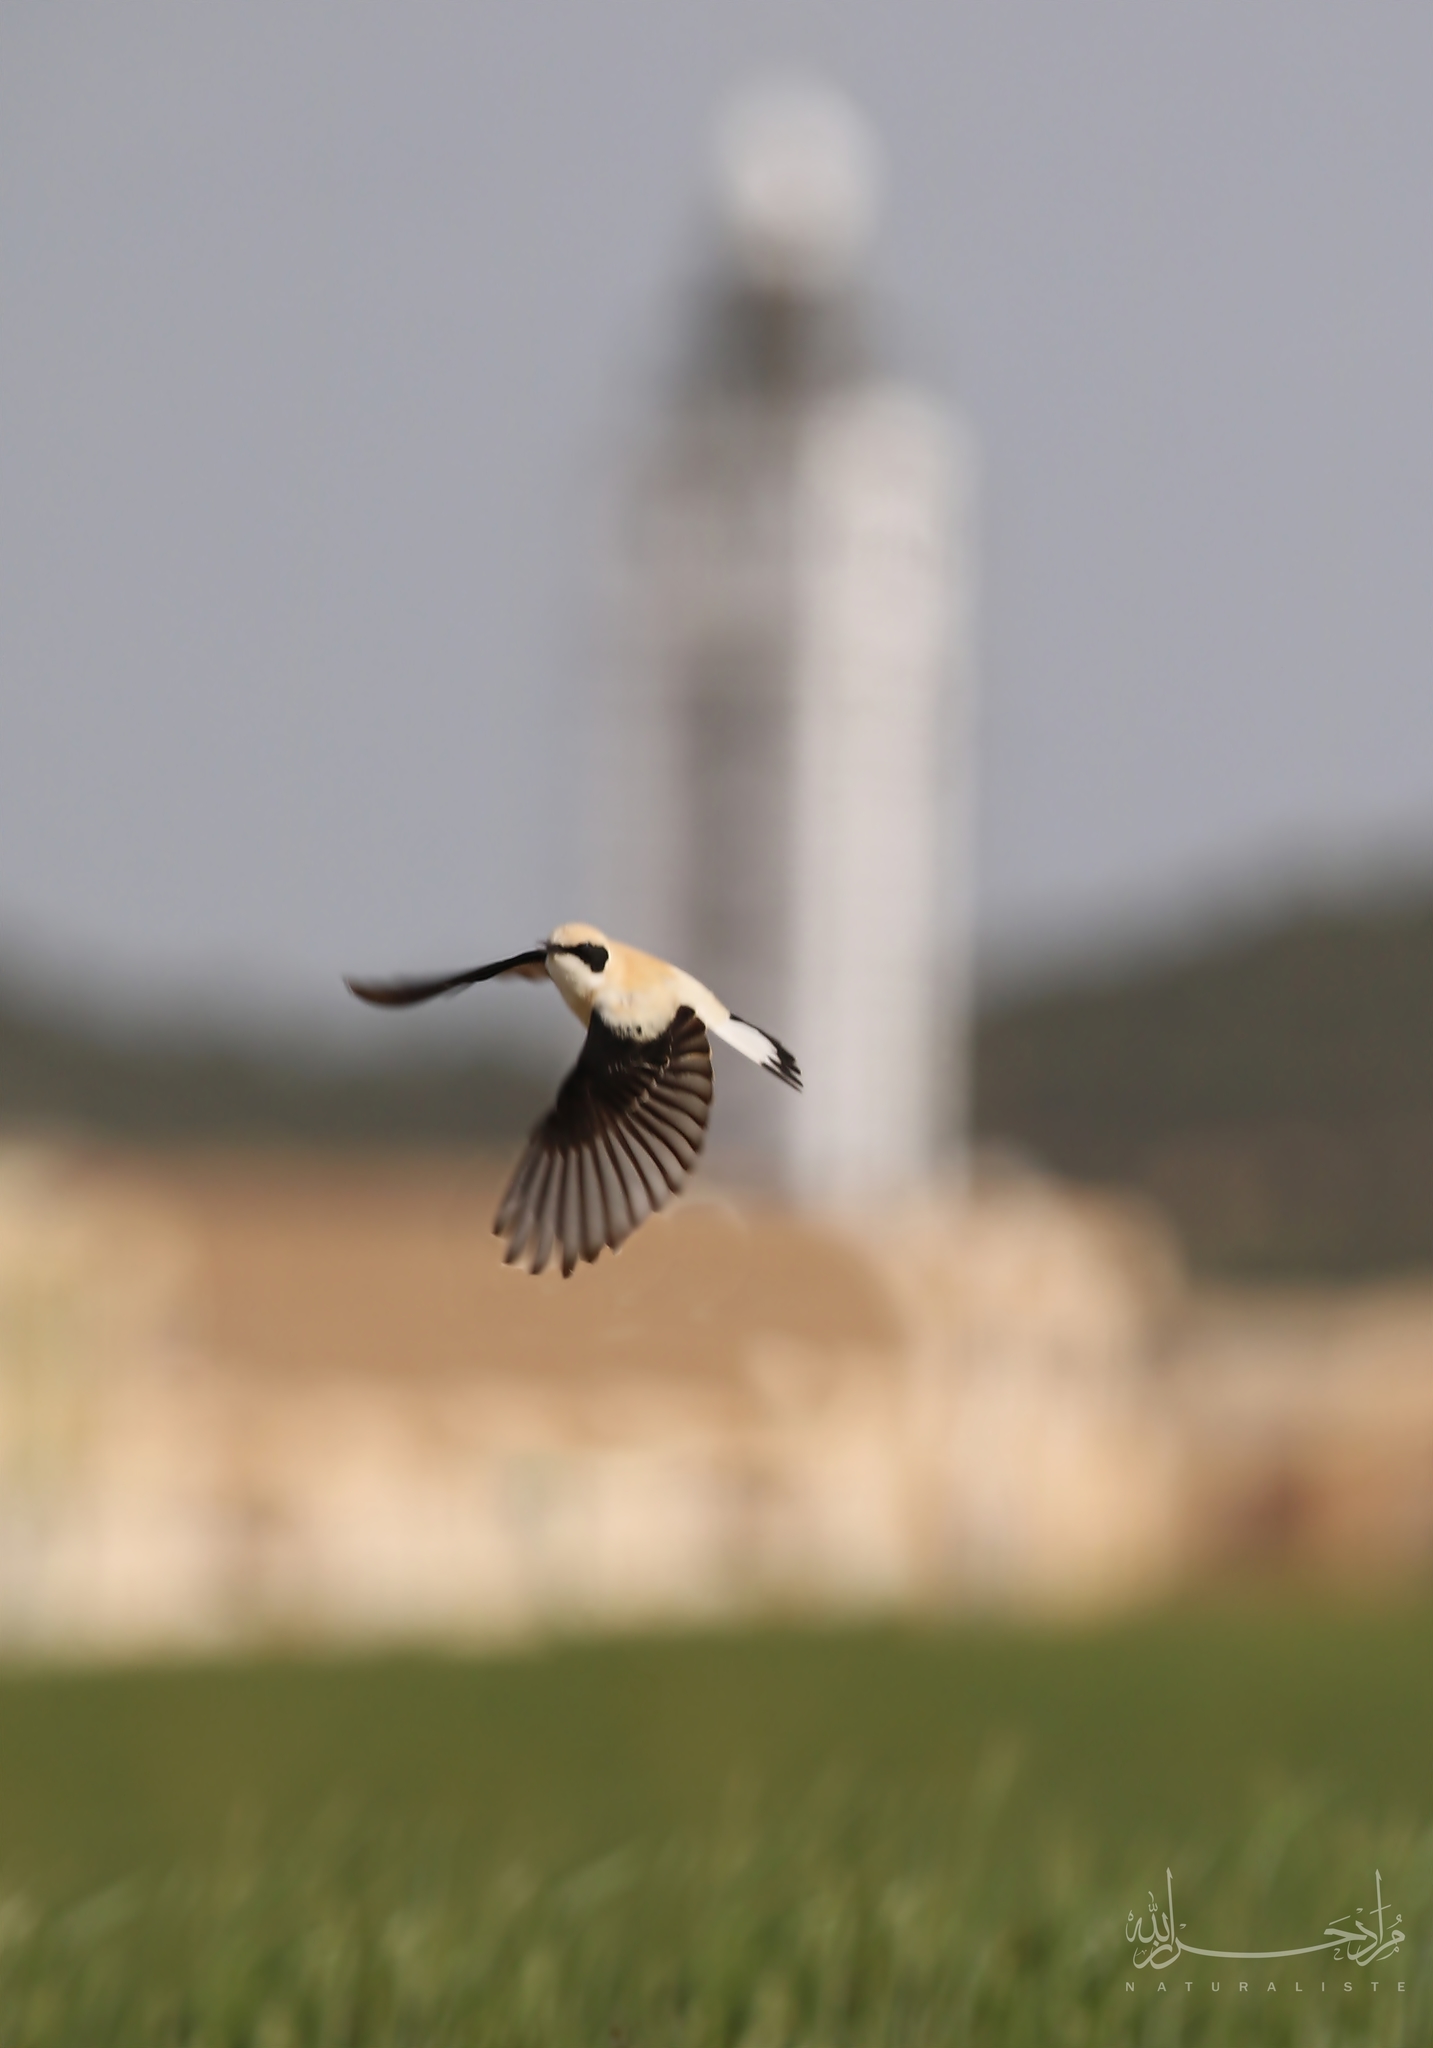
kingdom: Animalia
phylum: Chordata
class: Aves
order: Passeriformes
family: Muscicapidae
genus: Oenanthe
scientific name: Oenanthe hispanica
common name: Black-eared wheatear
